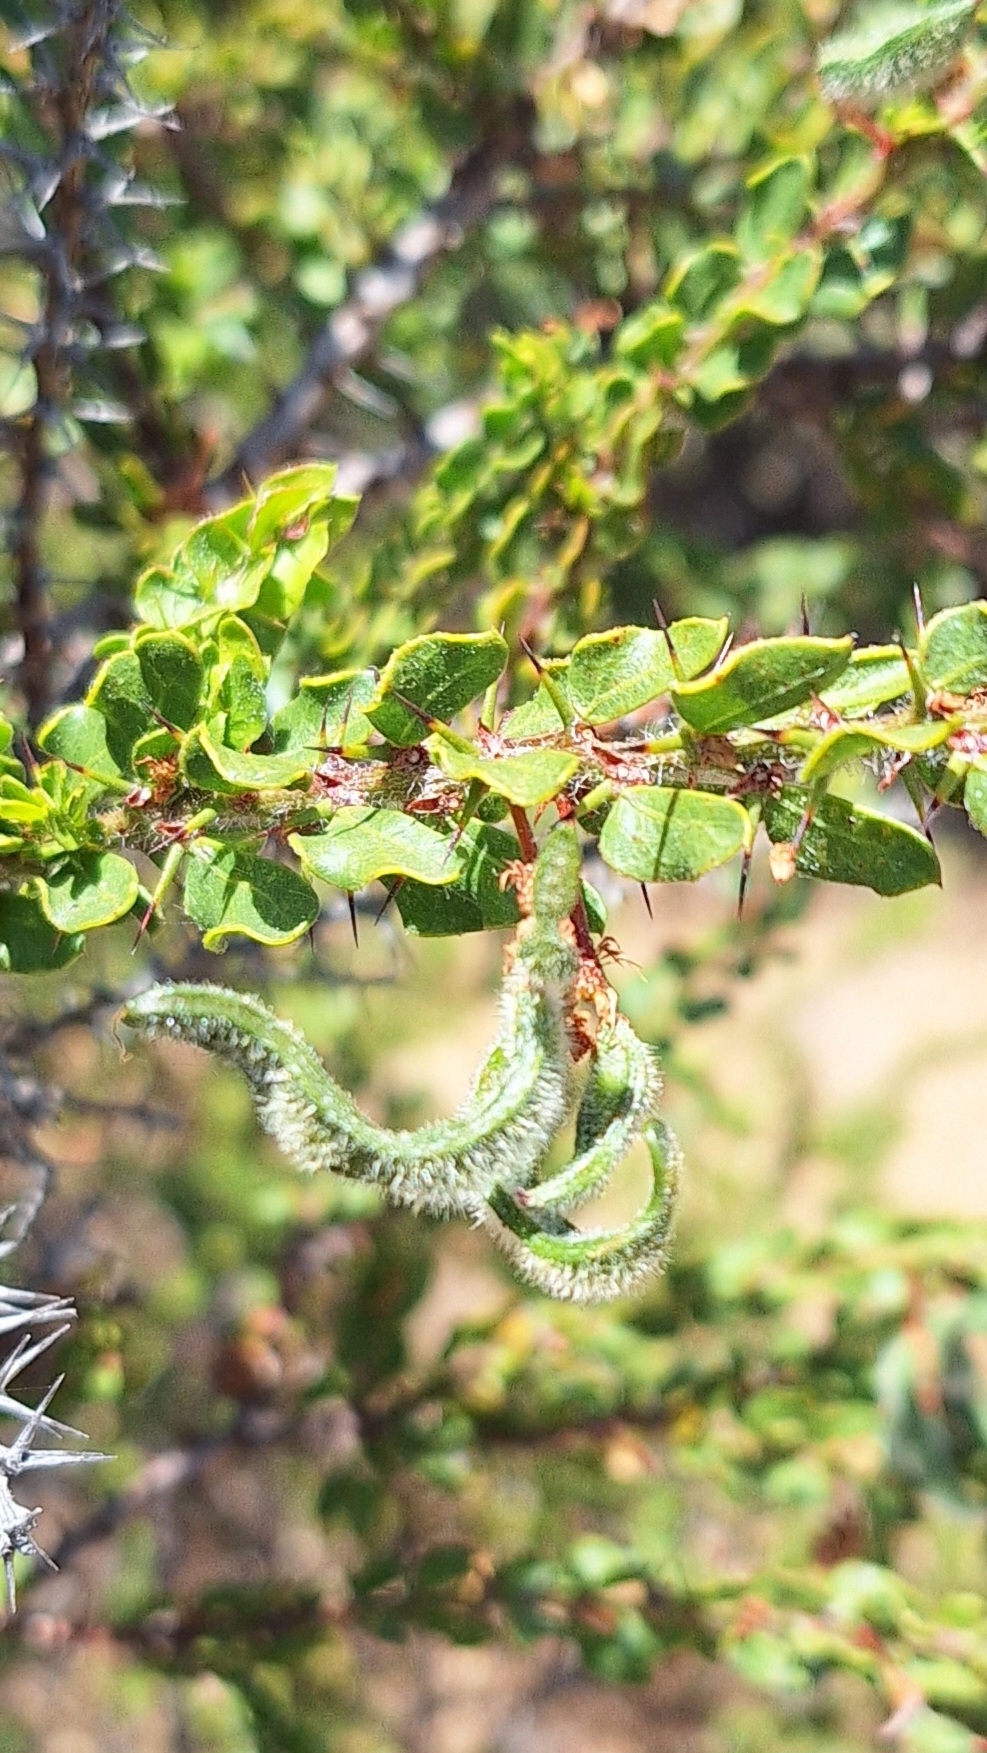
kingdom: Plantae
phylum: Tracheophyta
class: Magnoliopsida
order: Fabales
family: Fabaceae
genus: Acacia
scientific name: Acacia paradoxa
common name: Paradox acacia
